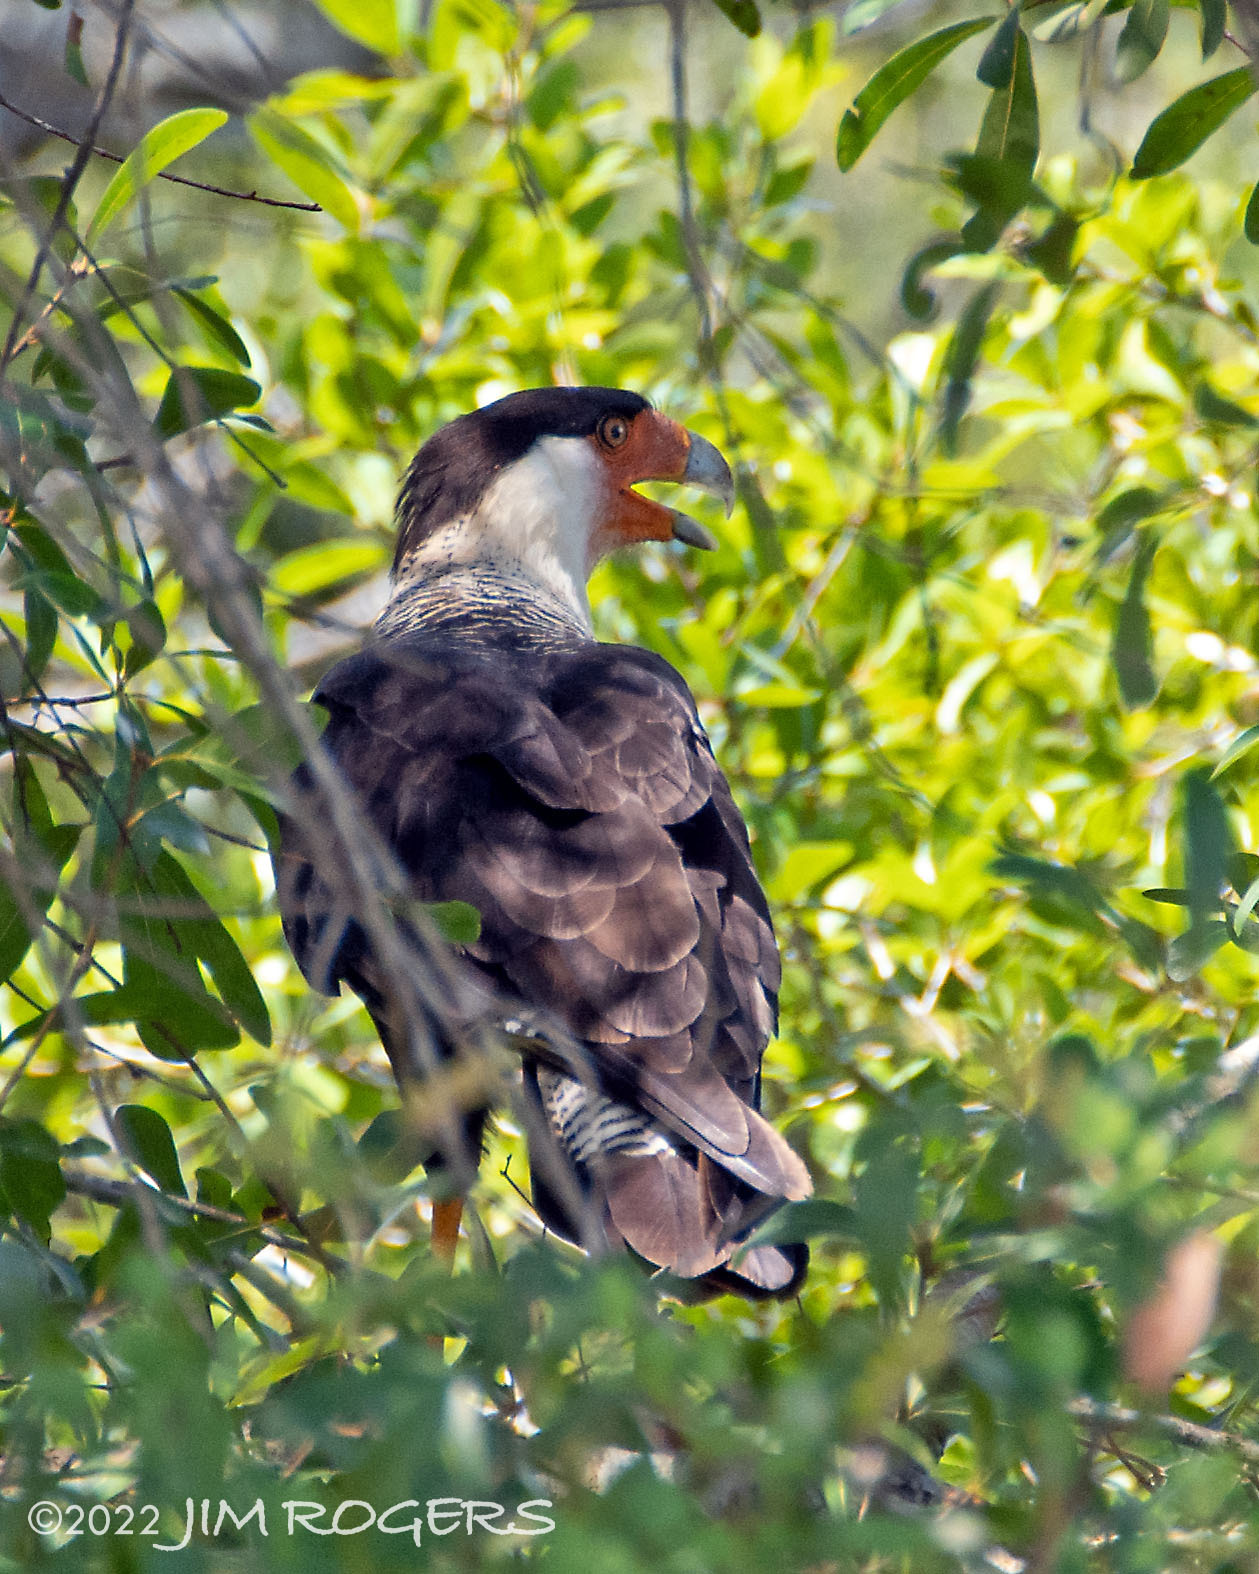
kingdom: Animalia
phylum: Chordata
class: Aves
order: Falconiformes
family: Falconidae
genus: Caracara
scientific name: Caracara plancus
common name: Southern caracara
